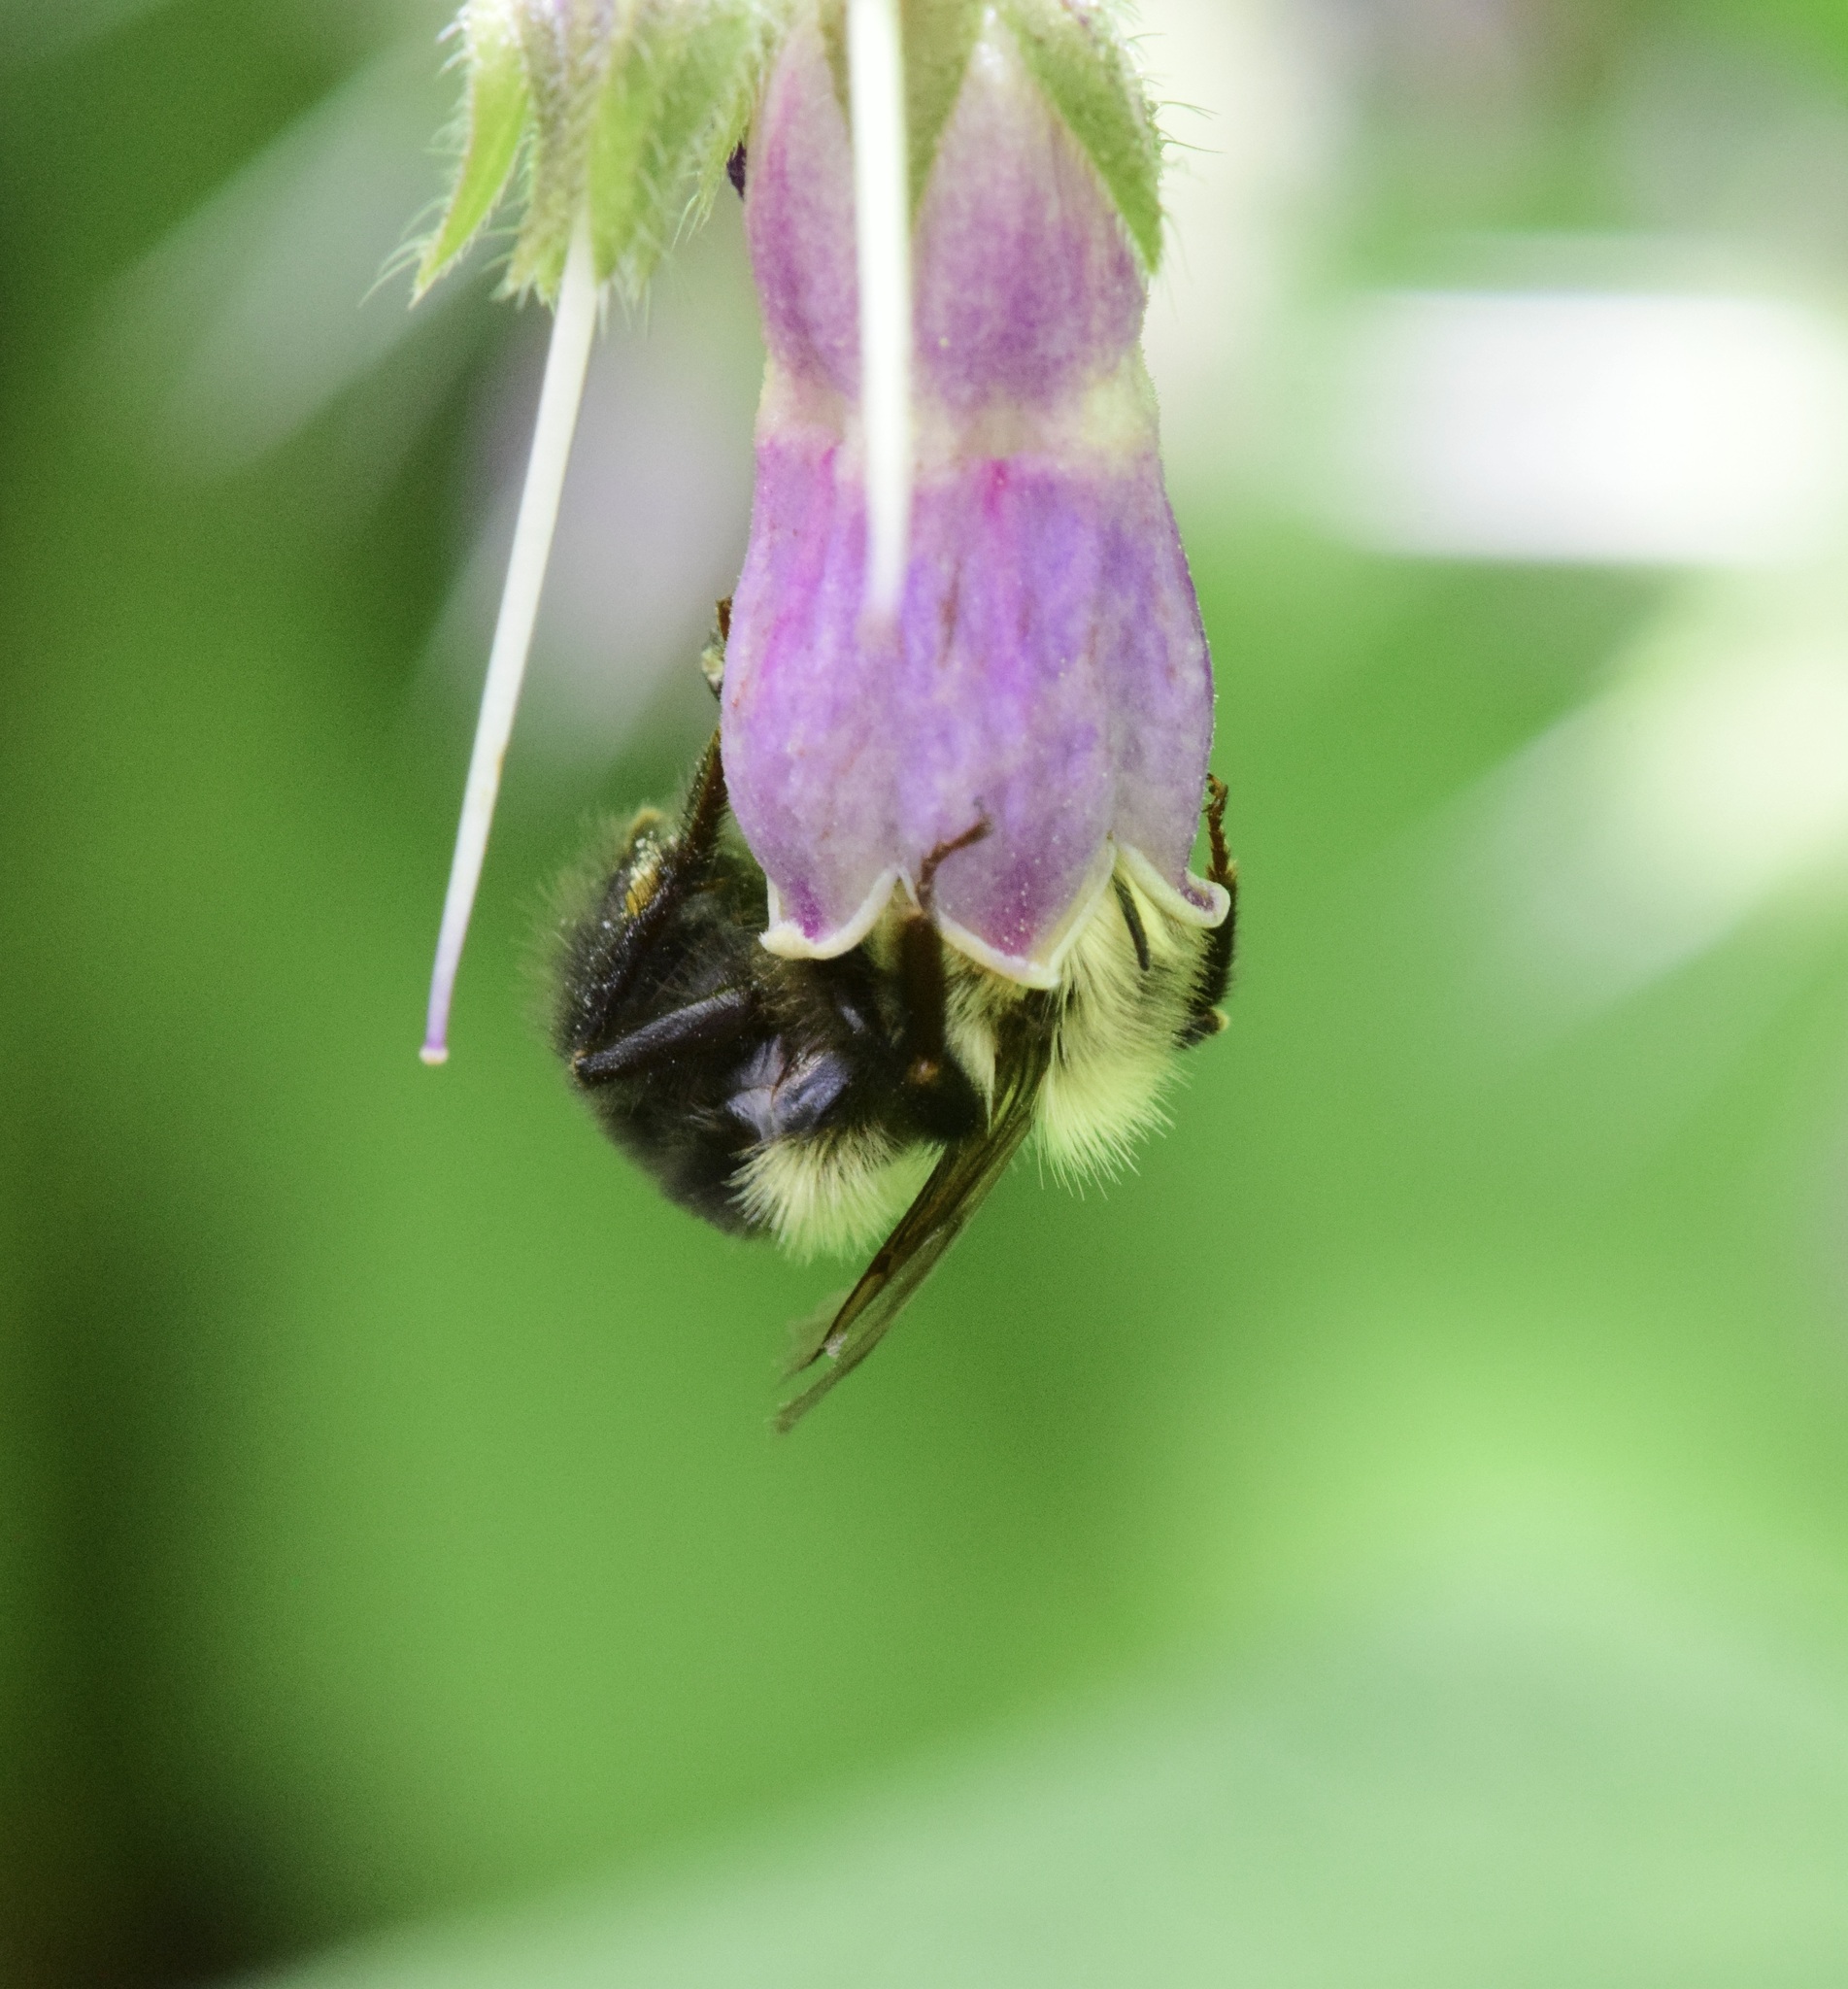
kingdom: Animalia
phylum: Arthropoda
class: Insecta
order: Hymenoptera
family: Apidae
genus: Pyrobombus
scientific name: Pyrobombus
